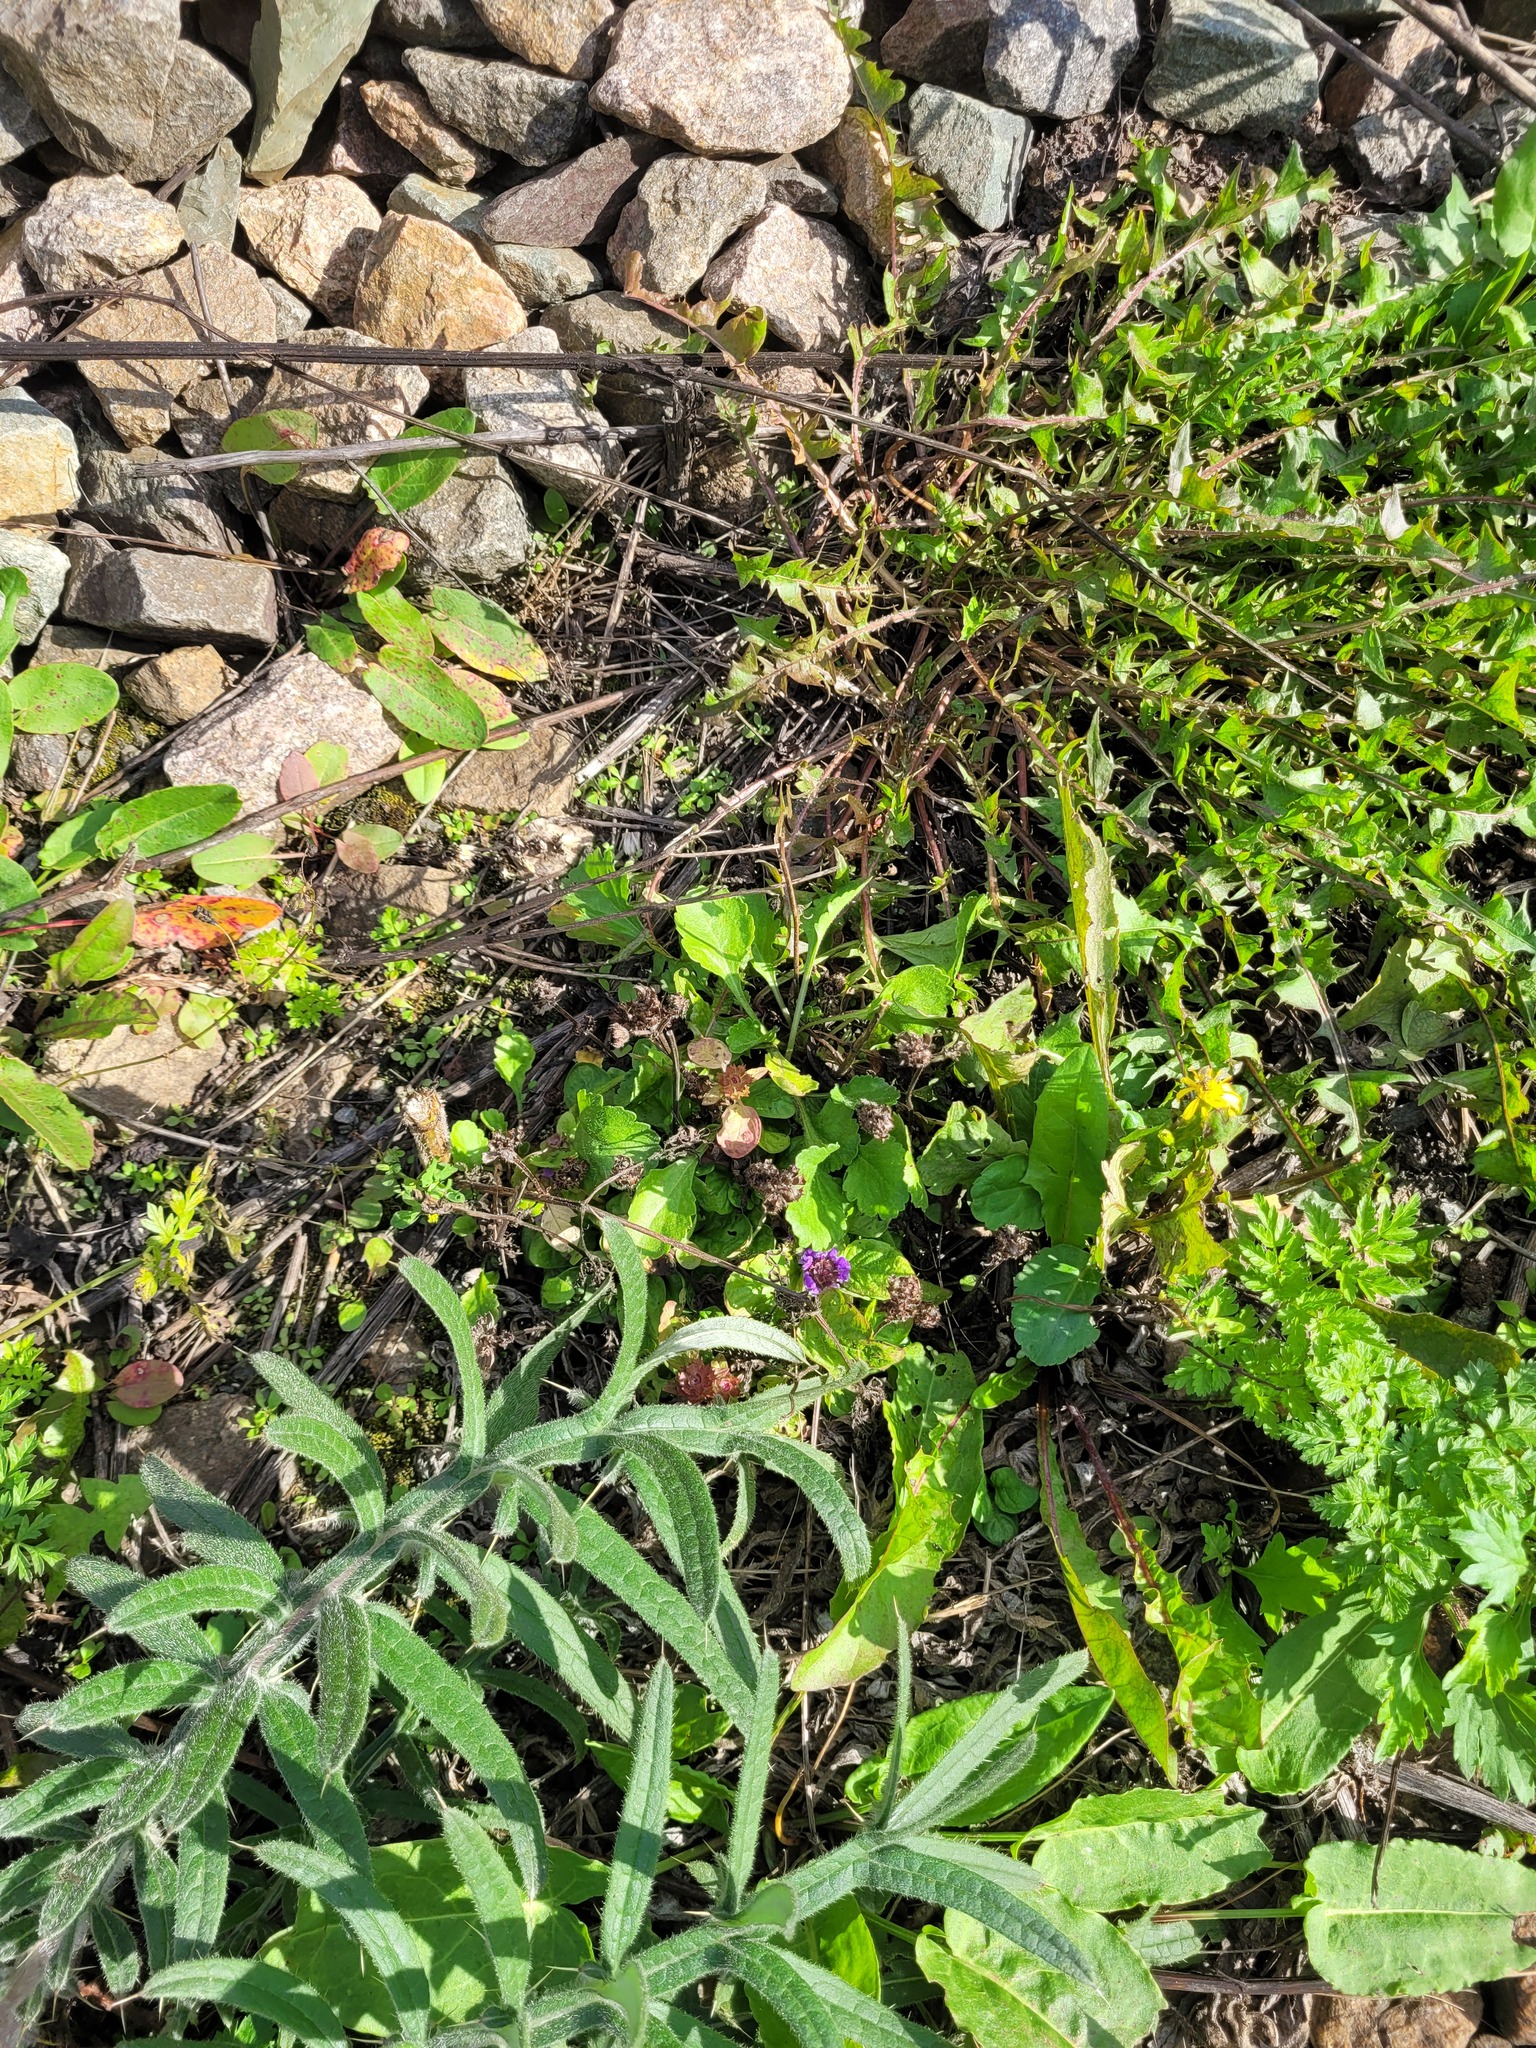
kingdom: Plantae
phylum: Tracheophyta
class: Magnoliopsida
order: Lamiales
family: Lamiaceae
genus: Prunella
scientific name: Prunella vulgaris
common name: Heal-all
